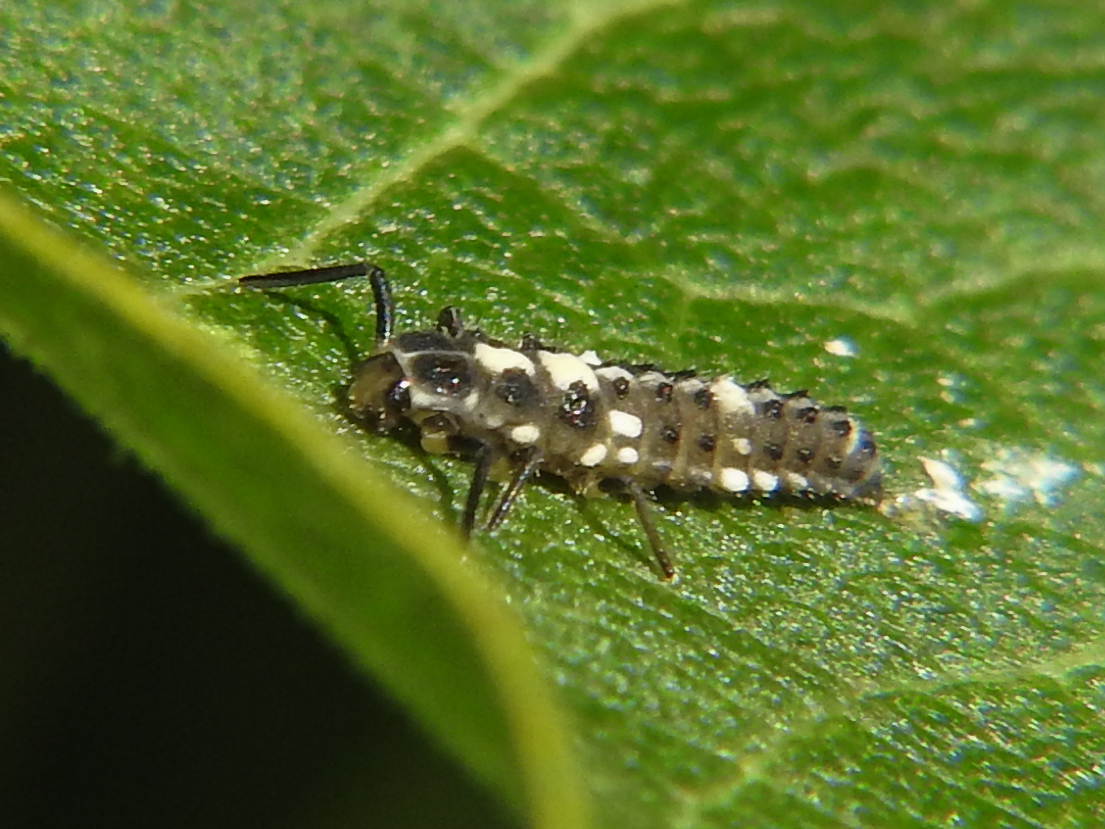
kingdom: Animalia
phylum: Arthropoda
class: Insecta
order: Coleoptera
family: Coccinellidae
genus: Propylaea
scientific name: Propylaea quatuordecimpunctata
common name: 14-spotted ladybird beetle
